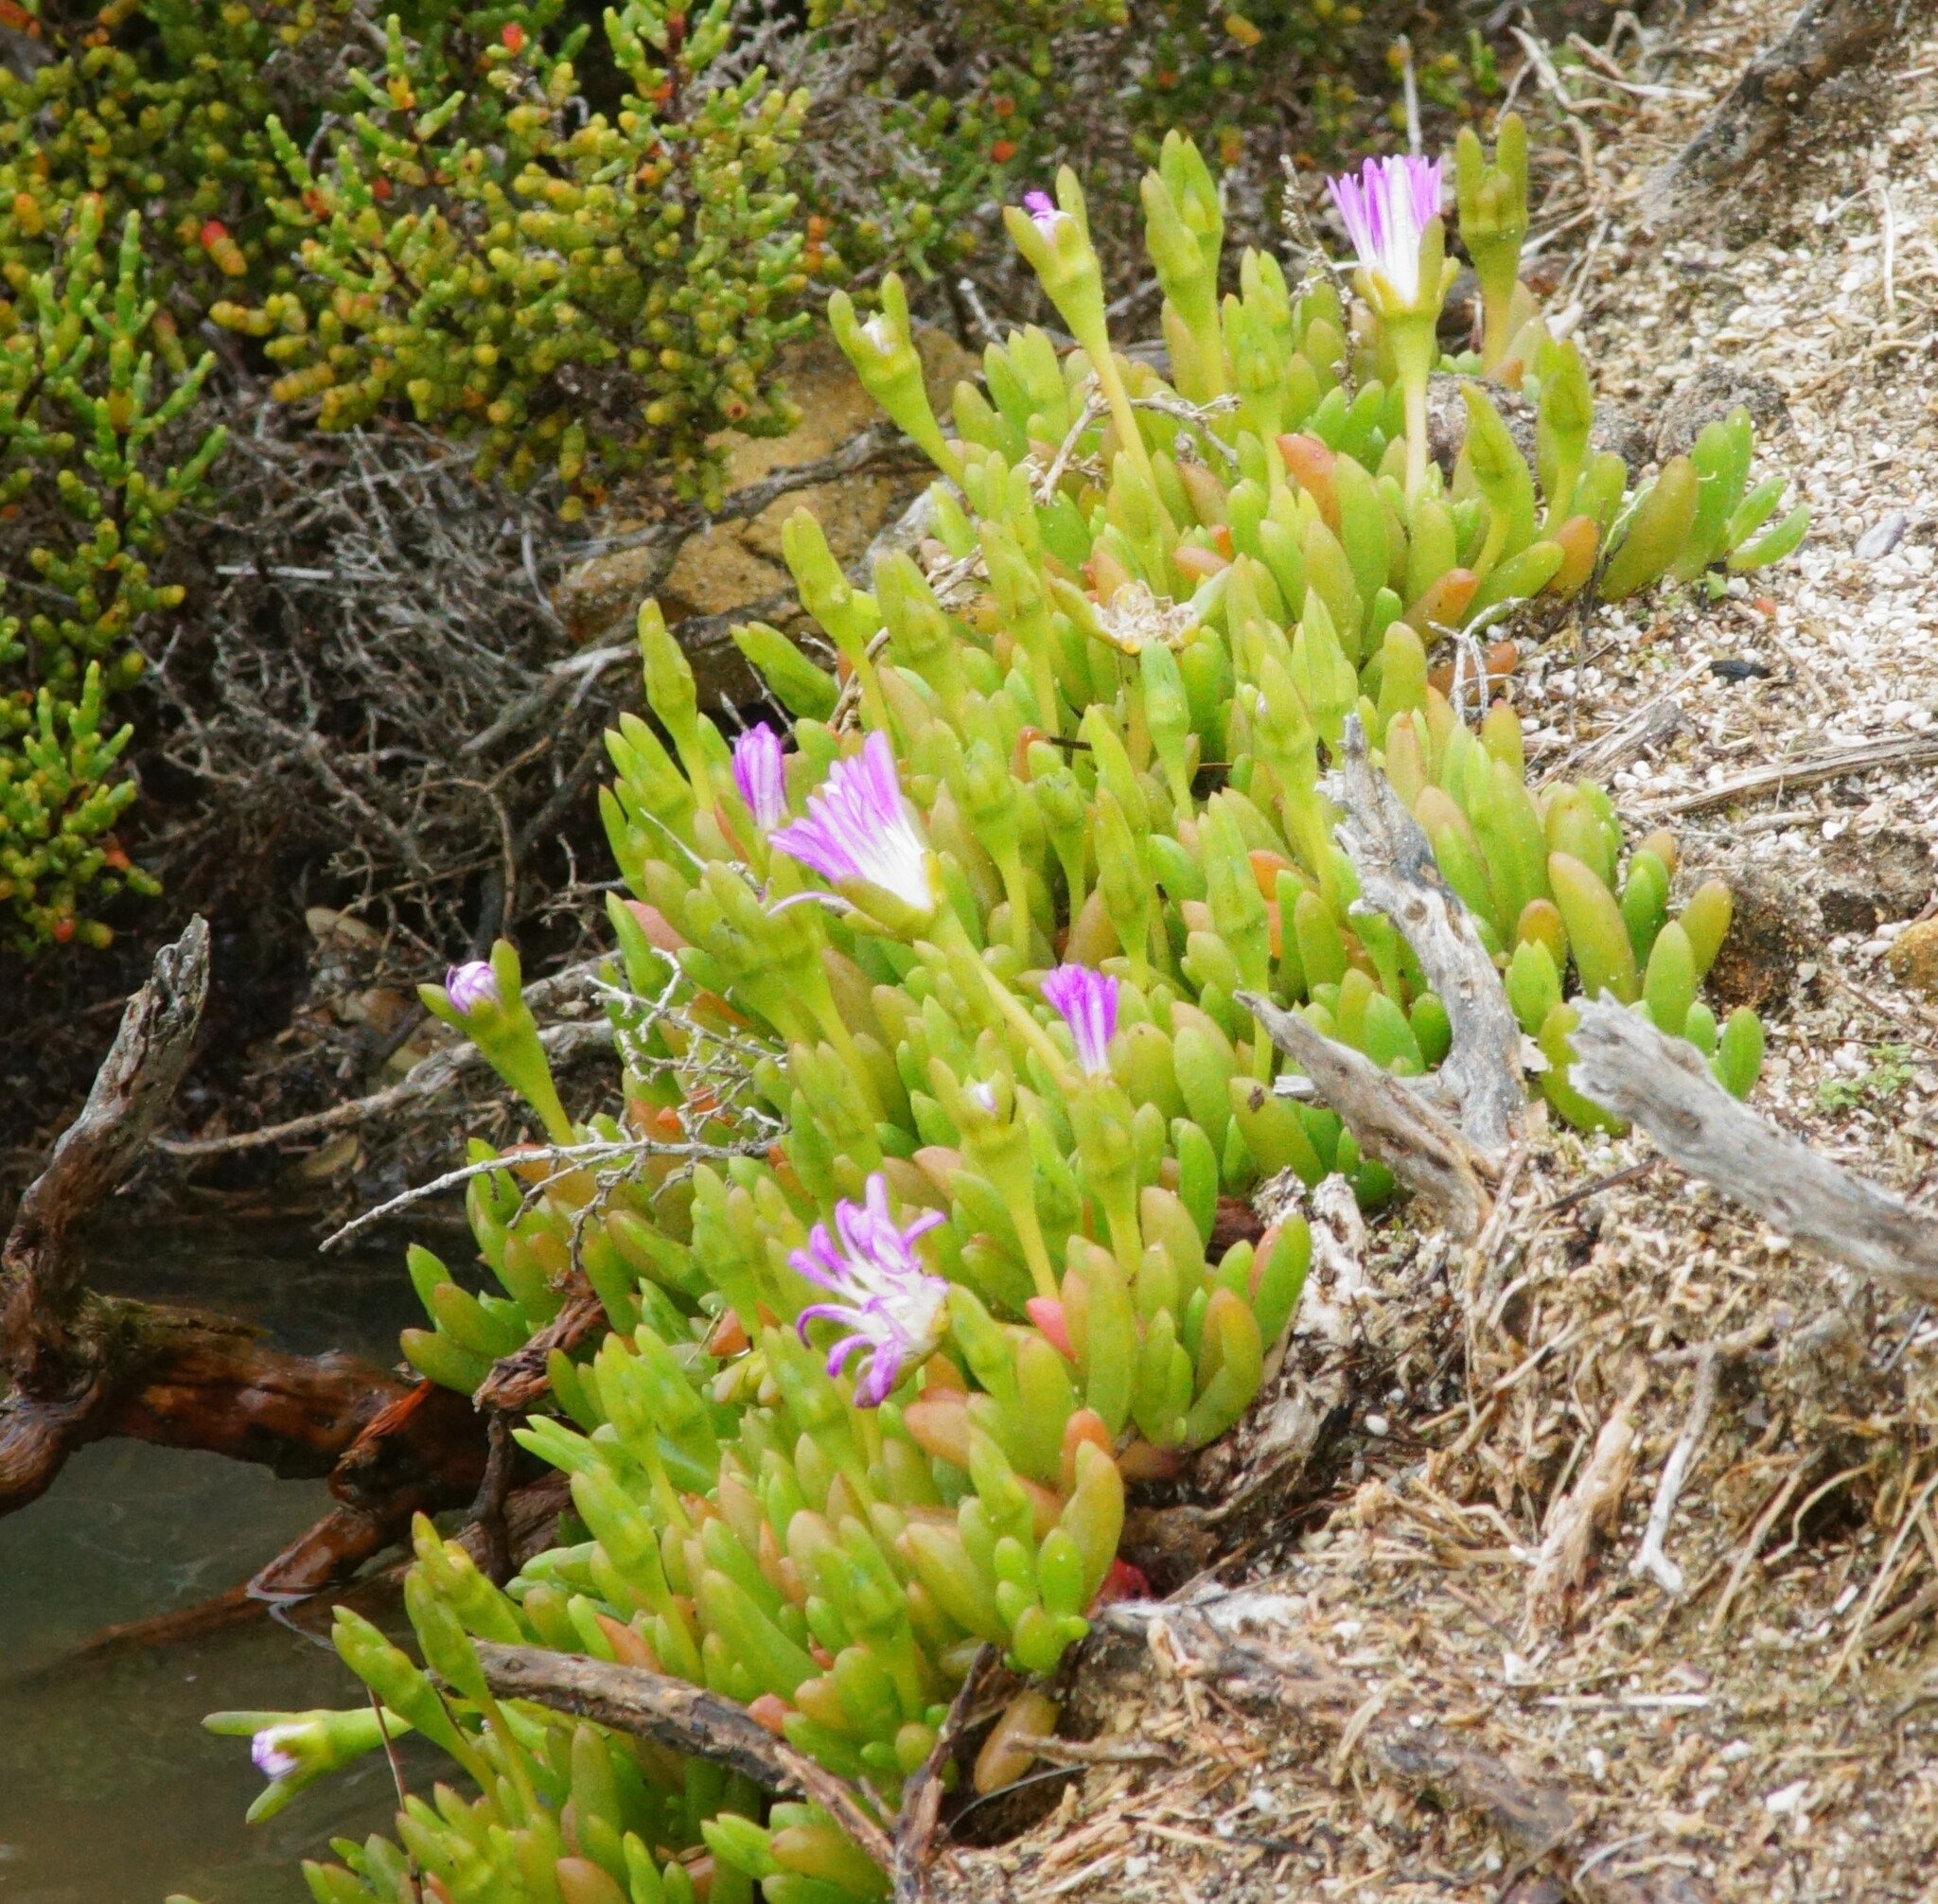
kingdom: Plantae
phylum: Tracheophyta
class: Magnoliopsida
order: Caryophyllales
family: Aizoaceae
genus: Disphyma
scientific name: Disphyma crassifolium
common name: Purple dewplant
